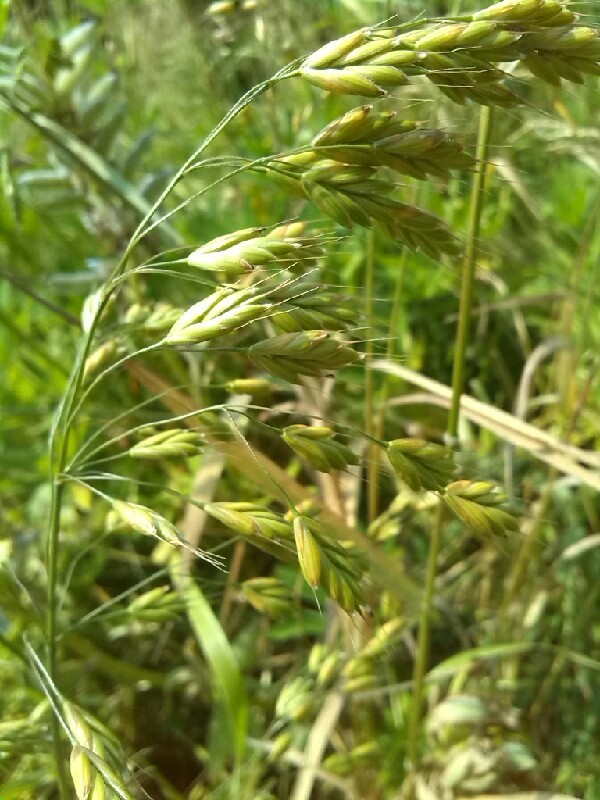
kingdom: Plantae
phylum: Tracheophyta
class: Liliopsida
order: Poales
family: Poaceae
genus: Bromus
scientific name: Bromus secalinus
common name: Rye brome
